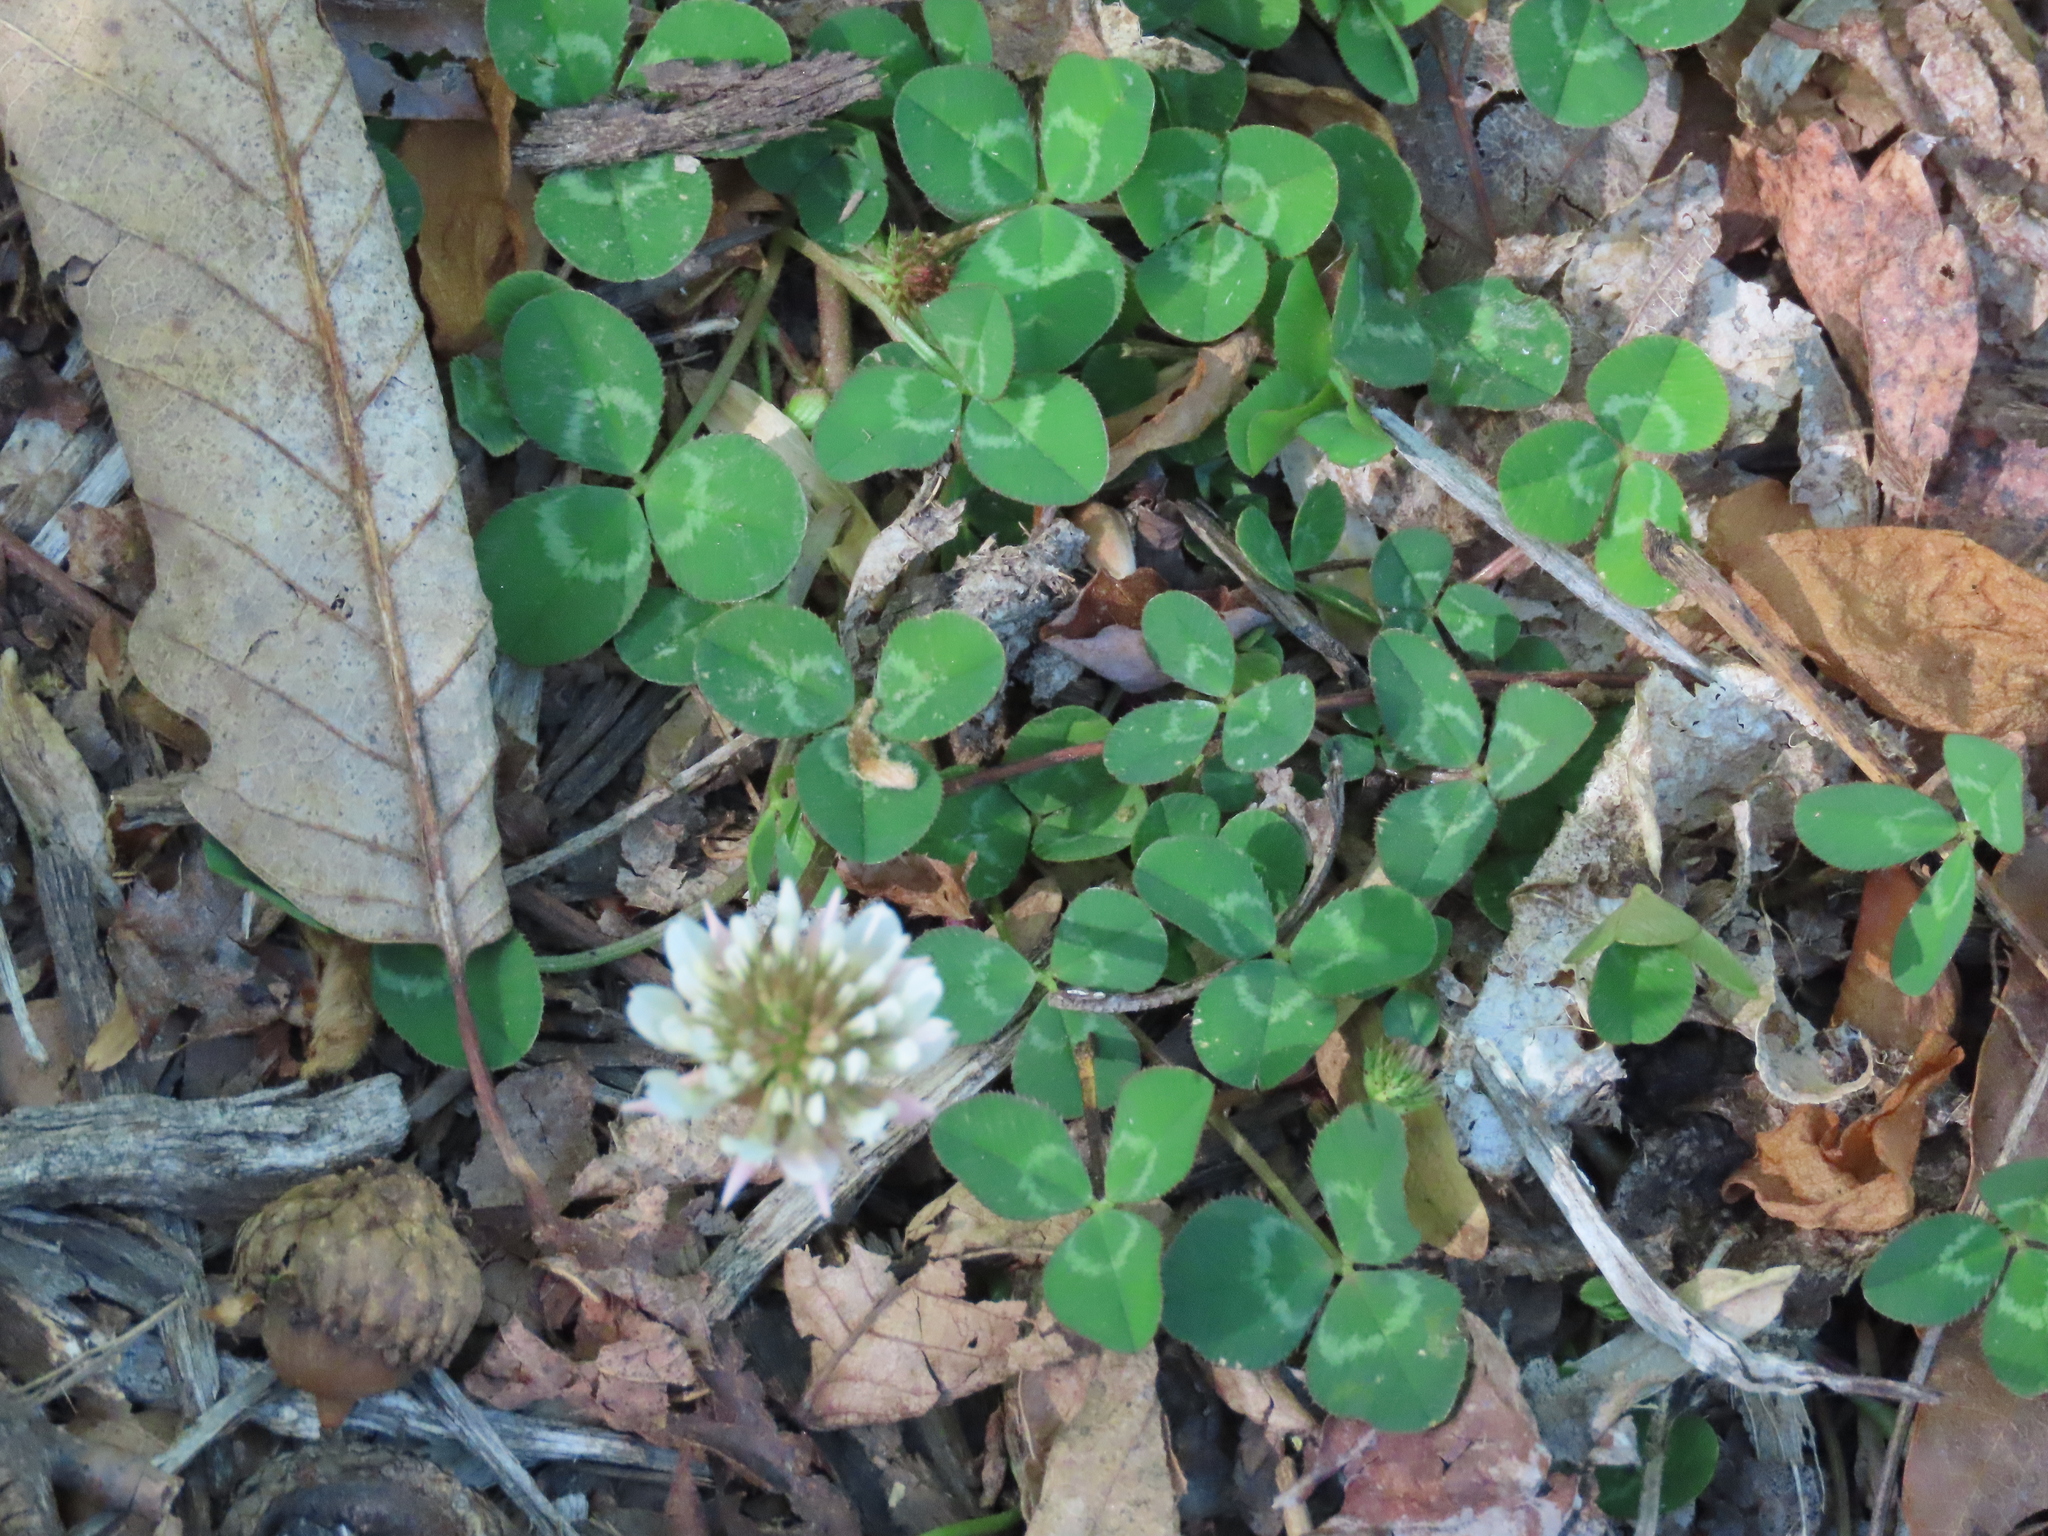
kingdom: Plantae
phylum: Tracheophyta
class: Magnoliopsida
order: Fabales
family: Fabaceae
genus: Trifolium
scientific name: Trifolium repens
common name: White clover
